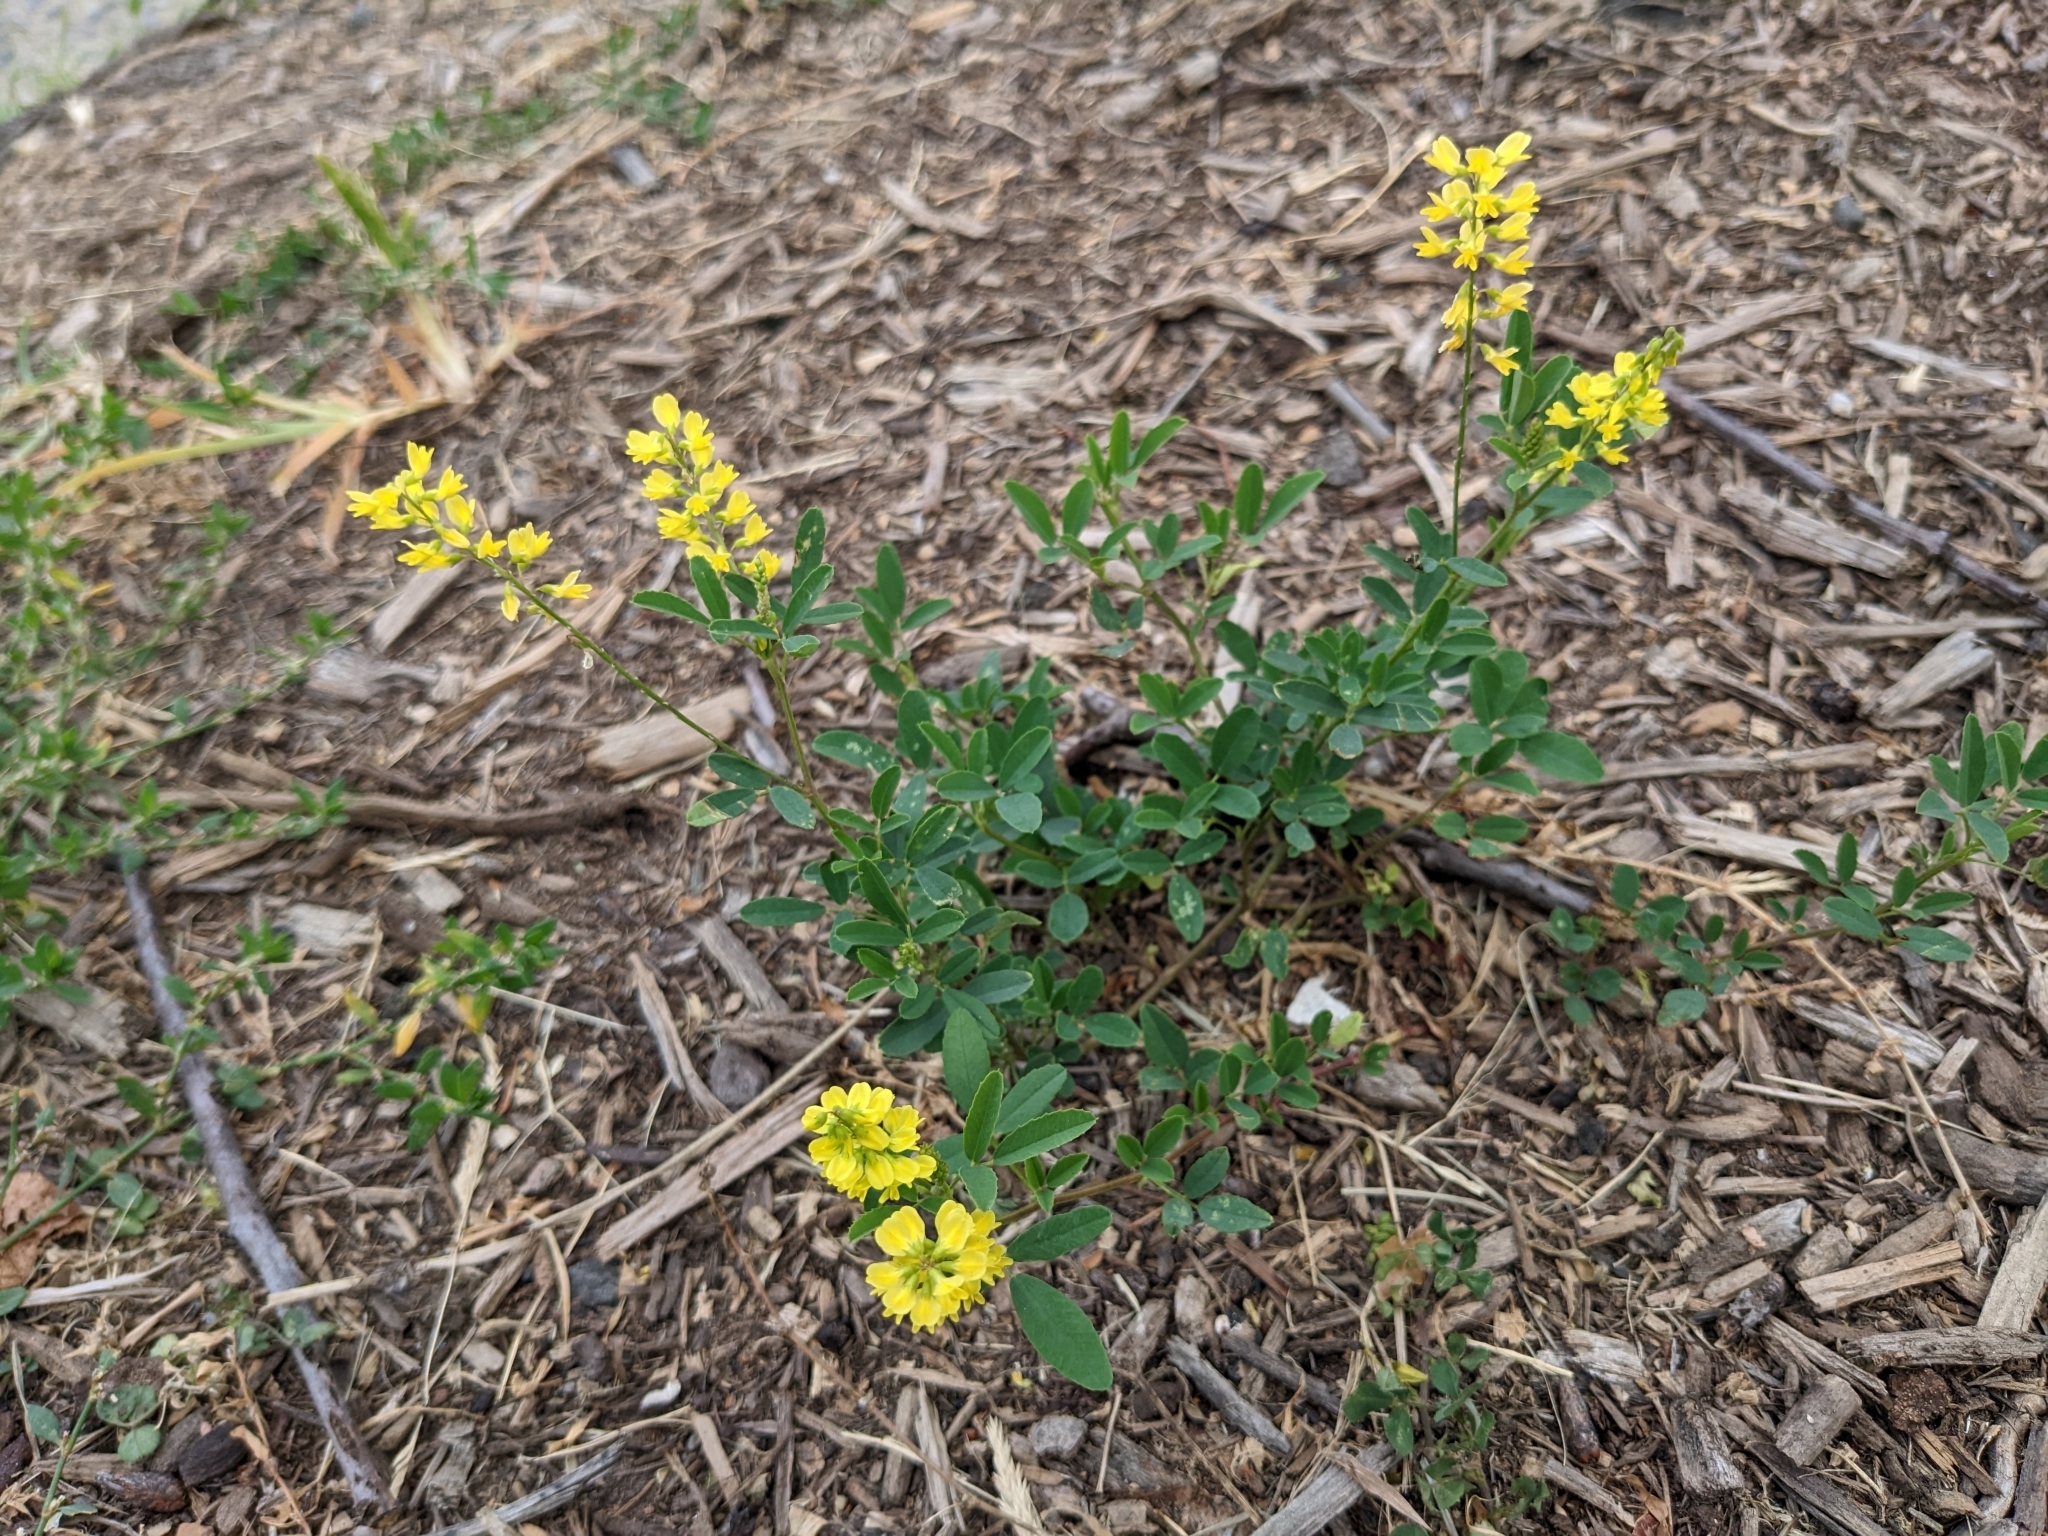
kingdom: Plantae
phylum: Tracheophyta
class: Magnoliopsida
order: Fabales
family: Fabaceae
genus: Melilotus
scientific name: Melilotus officinalis
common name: Sweetclover
